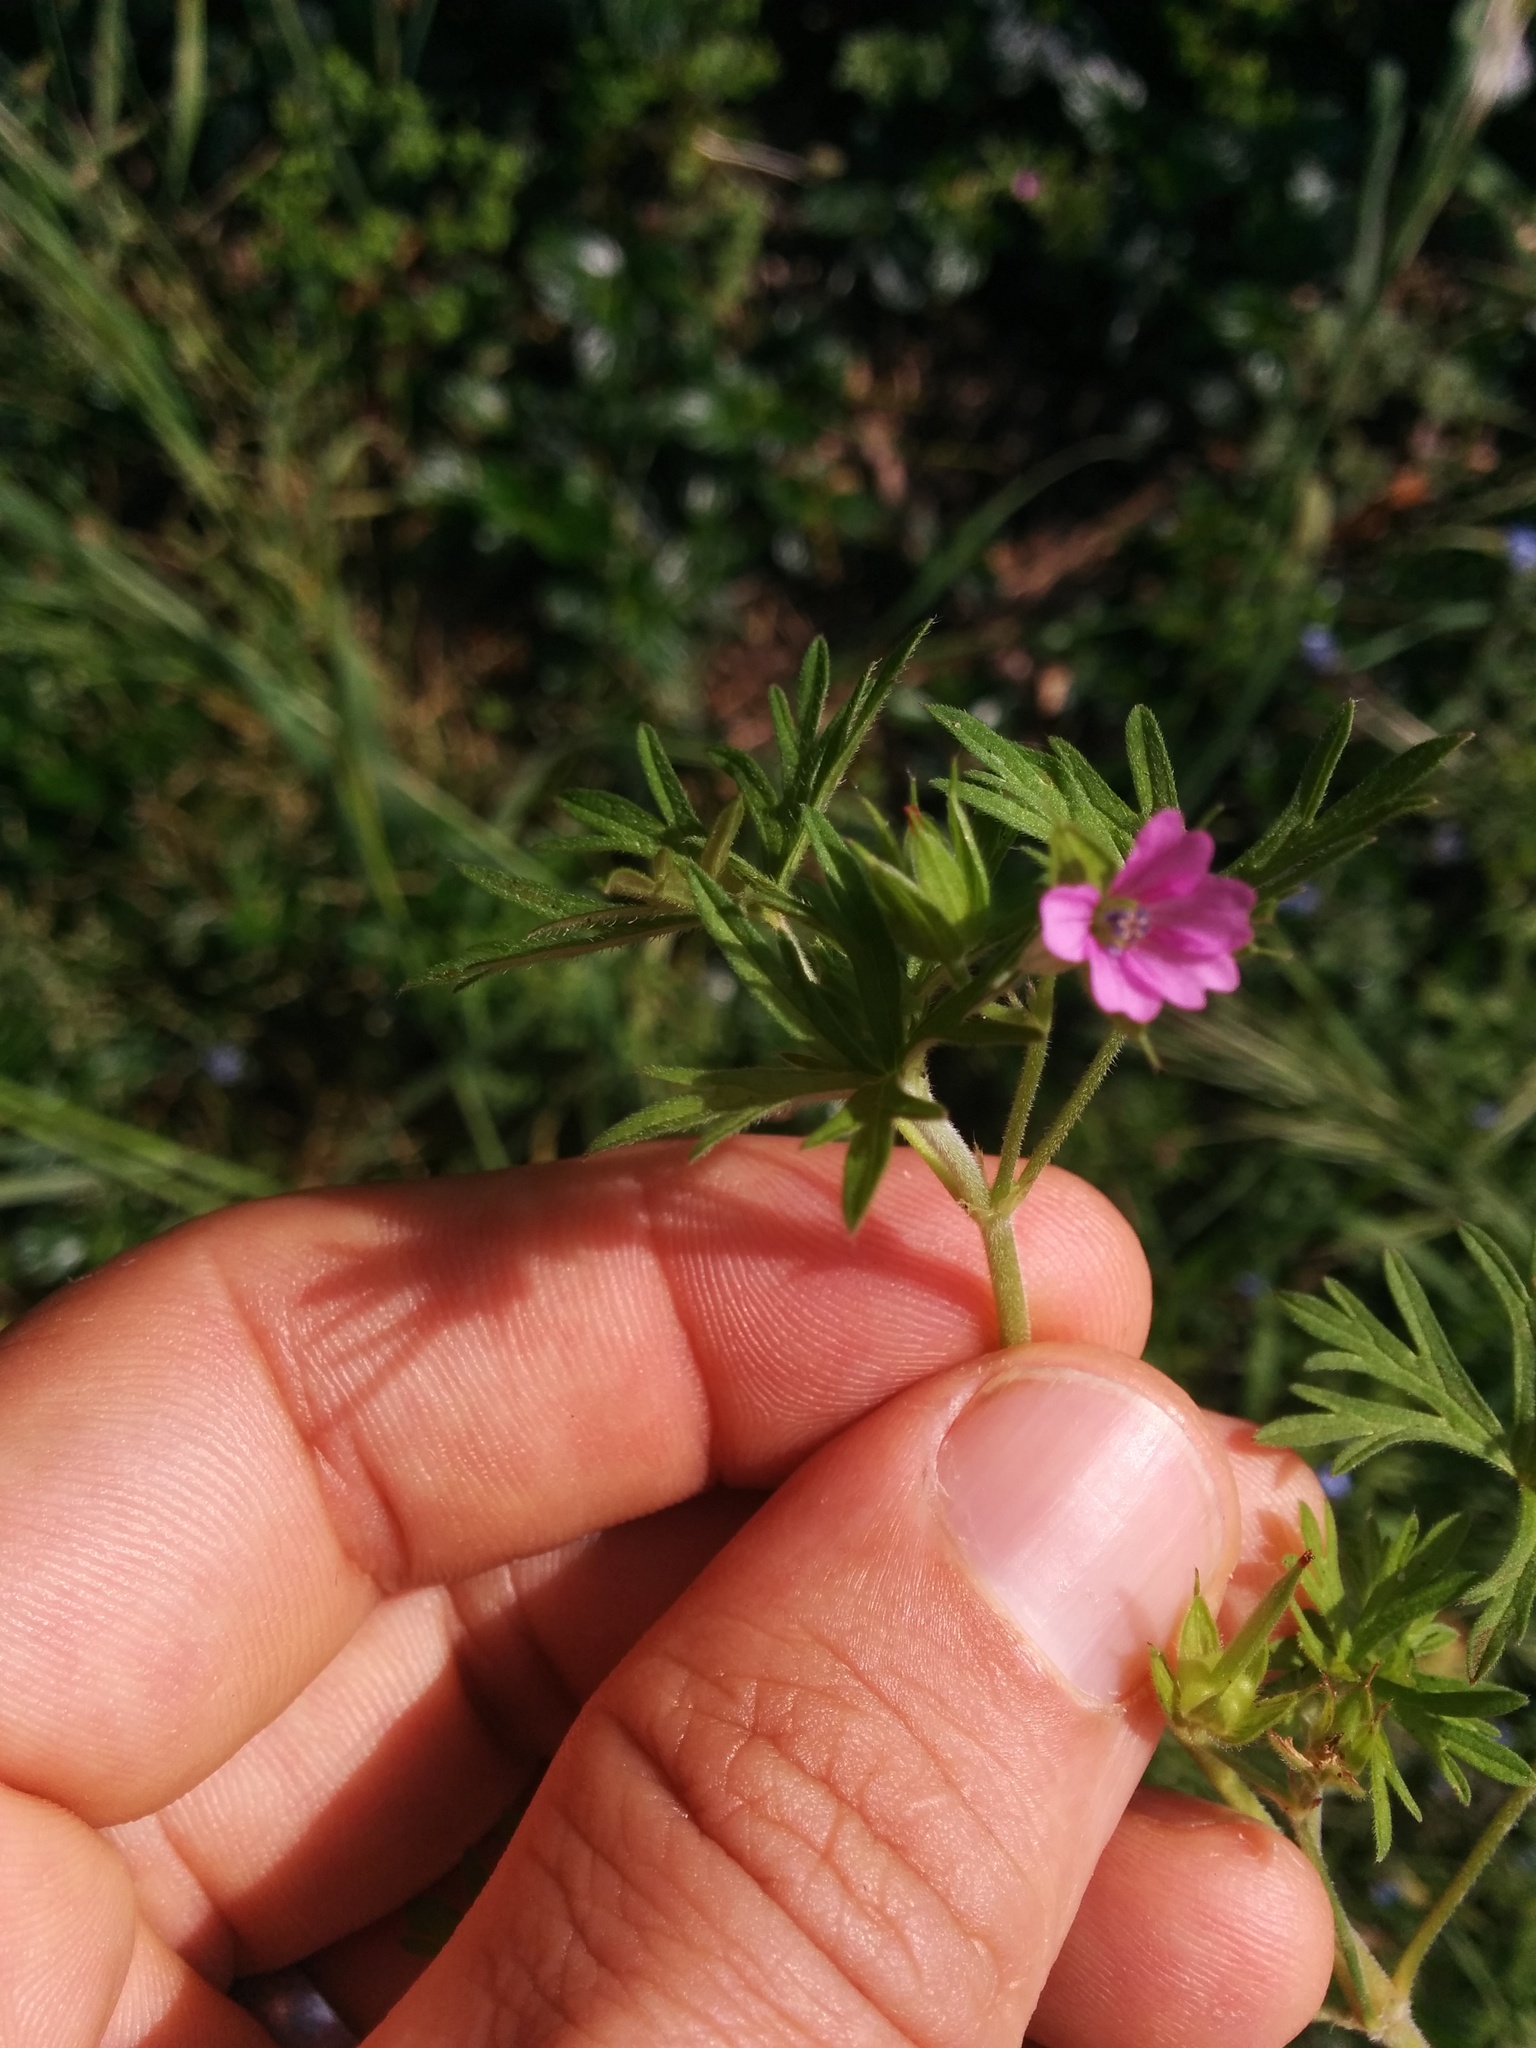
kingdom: Plantae
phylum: Tracheophyta
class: Magnoliopsida
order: Geraniales
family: Geraniaceae
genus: Geranium
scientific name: Geranium dissectum
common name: Cut-leaved crane's-bill
